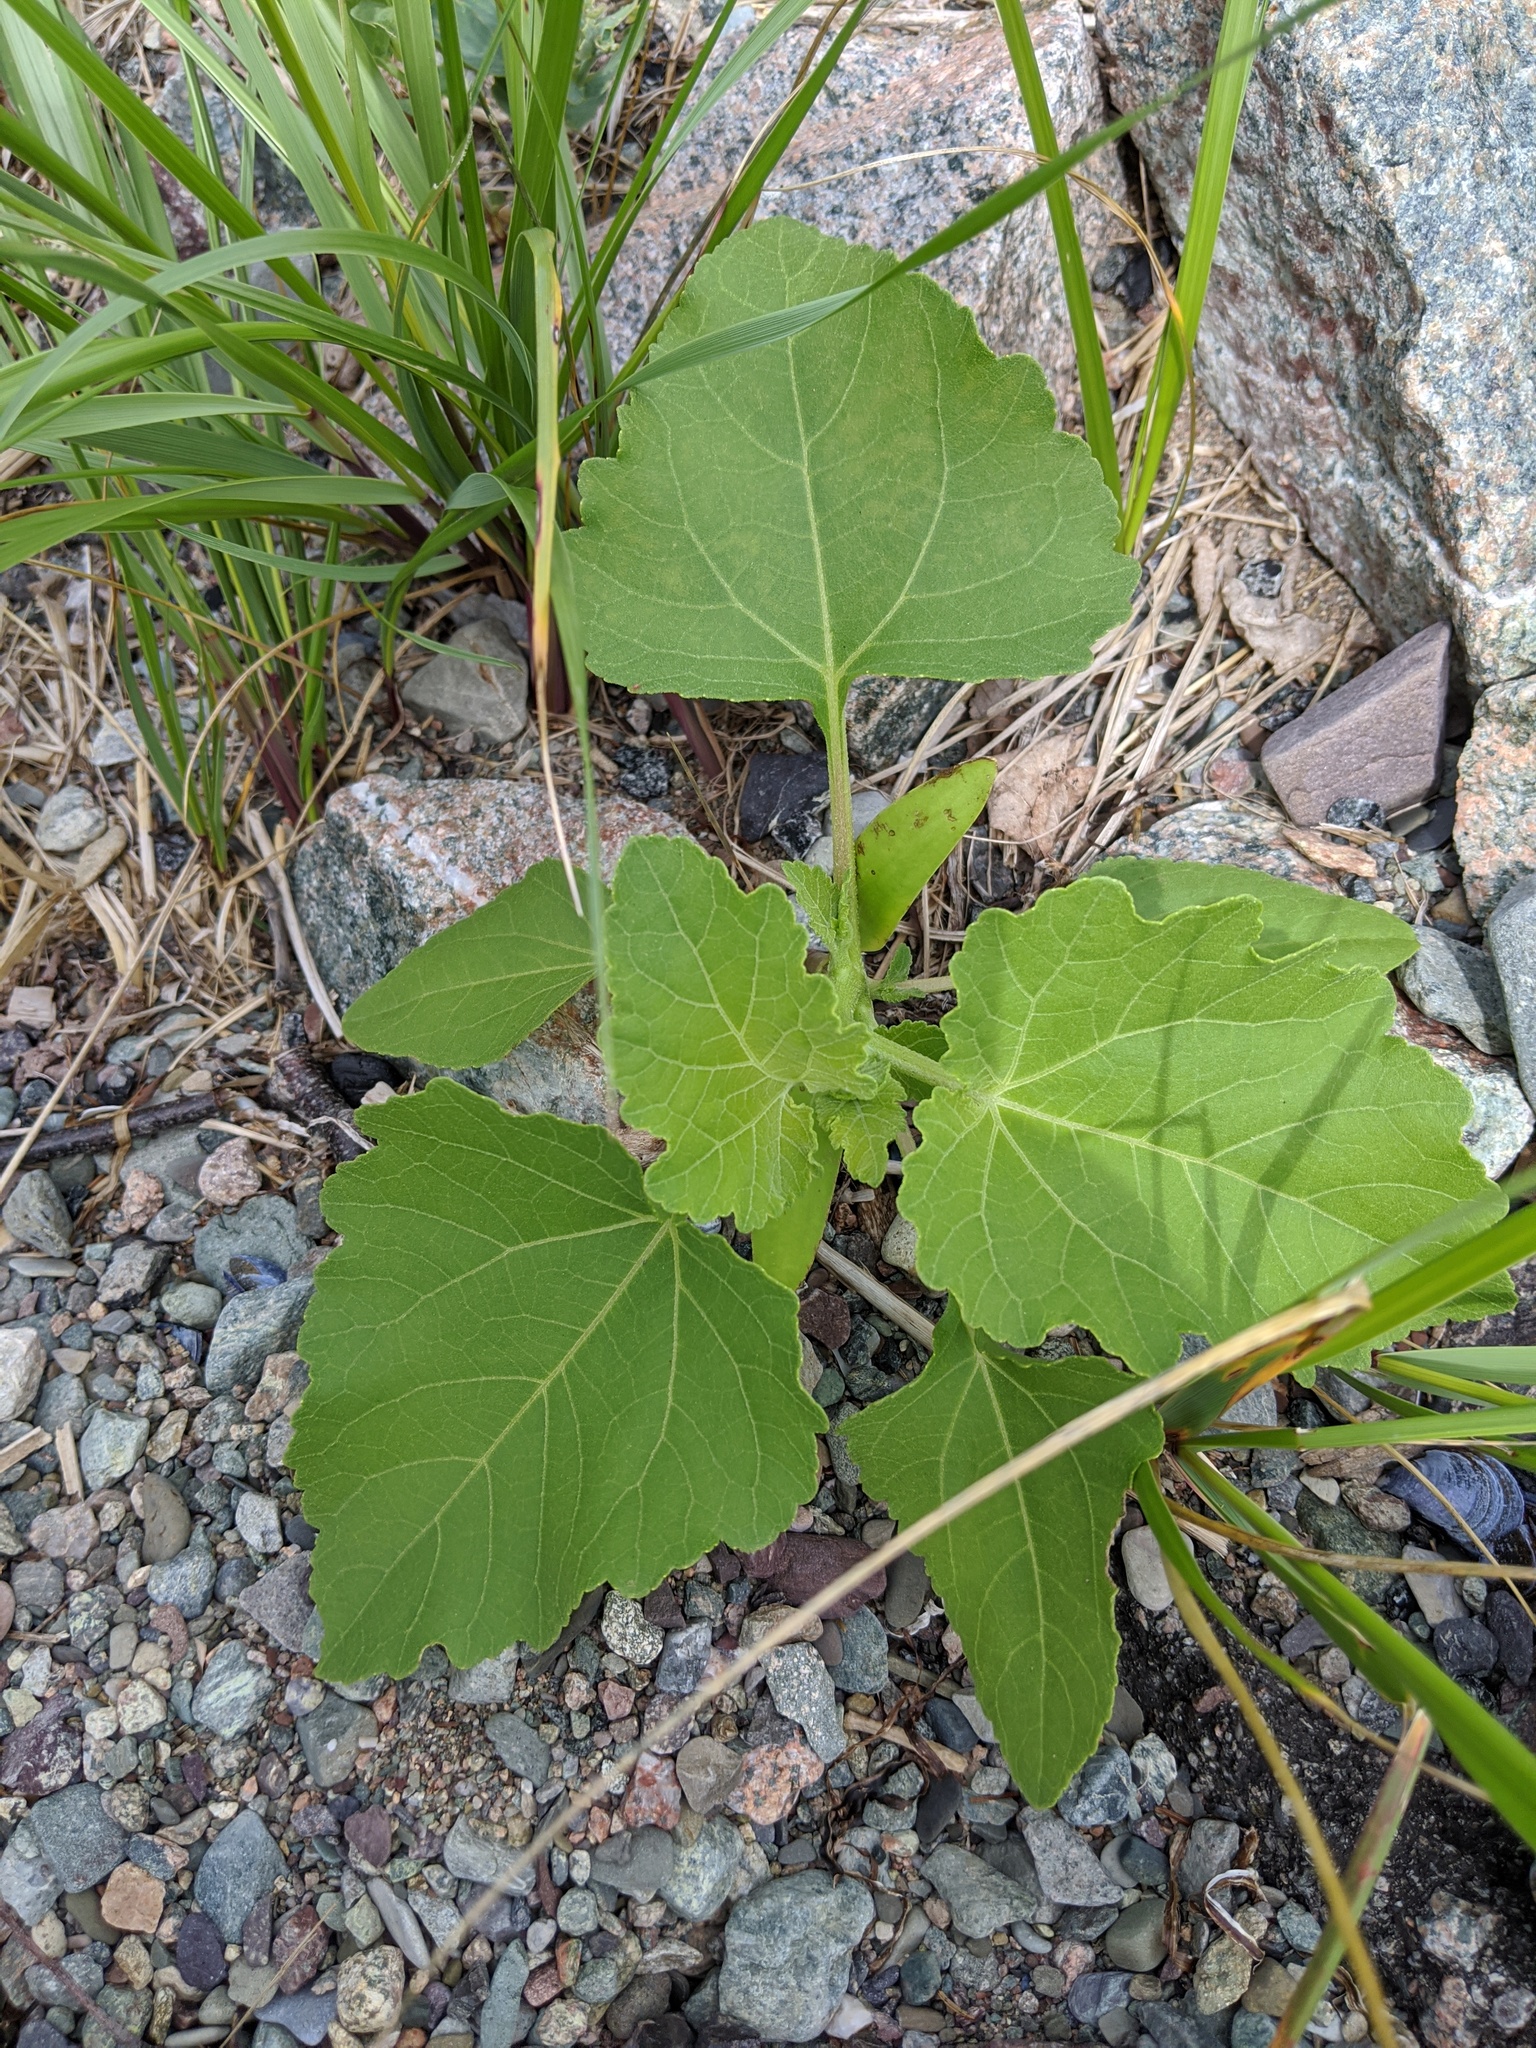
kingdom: Plantae
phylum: Tracheophyta
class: Magnoliopsida
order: Asterales
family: Asteraceae
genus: Xanthium
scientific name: Xanthium strumarium
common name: Rough cocklebur
